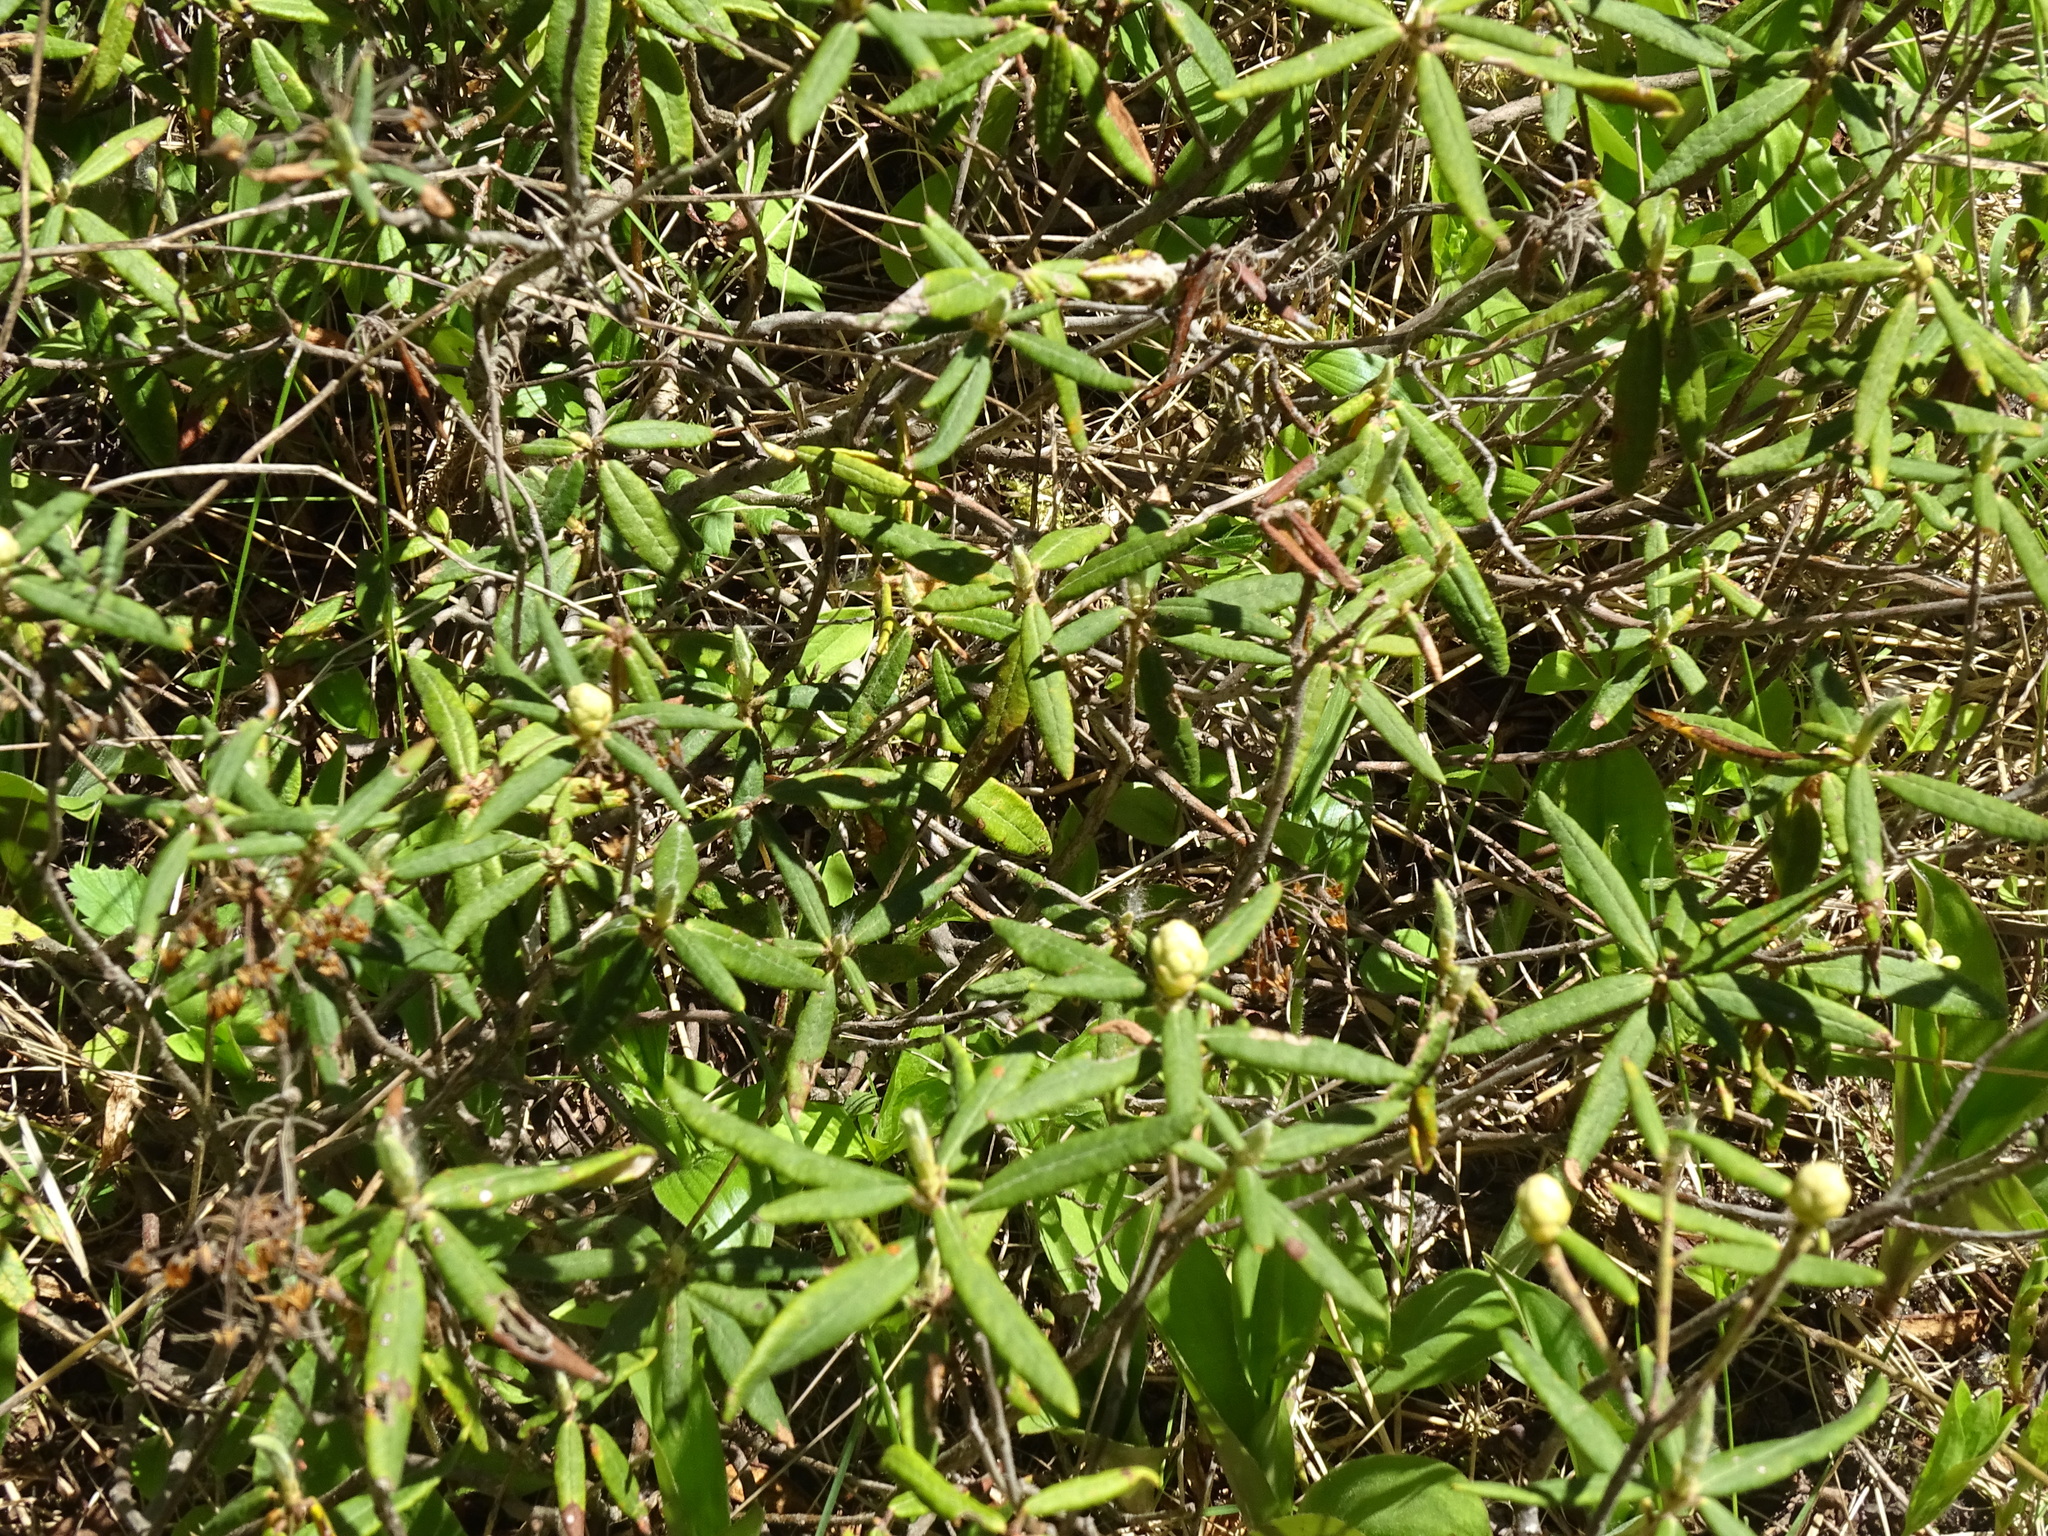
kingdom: Plantae
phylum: Tracheophyta
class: Magnoliopsida
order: Ericales
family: Ericaceae
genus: Rhododendron
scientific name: Rhododendron groenlandicum
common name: Bog labrador tea
